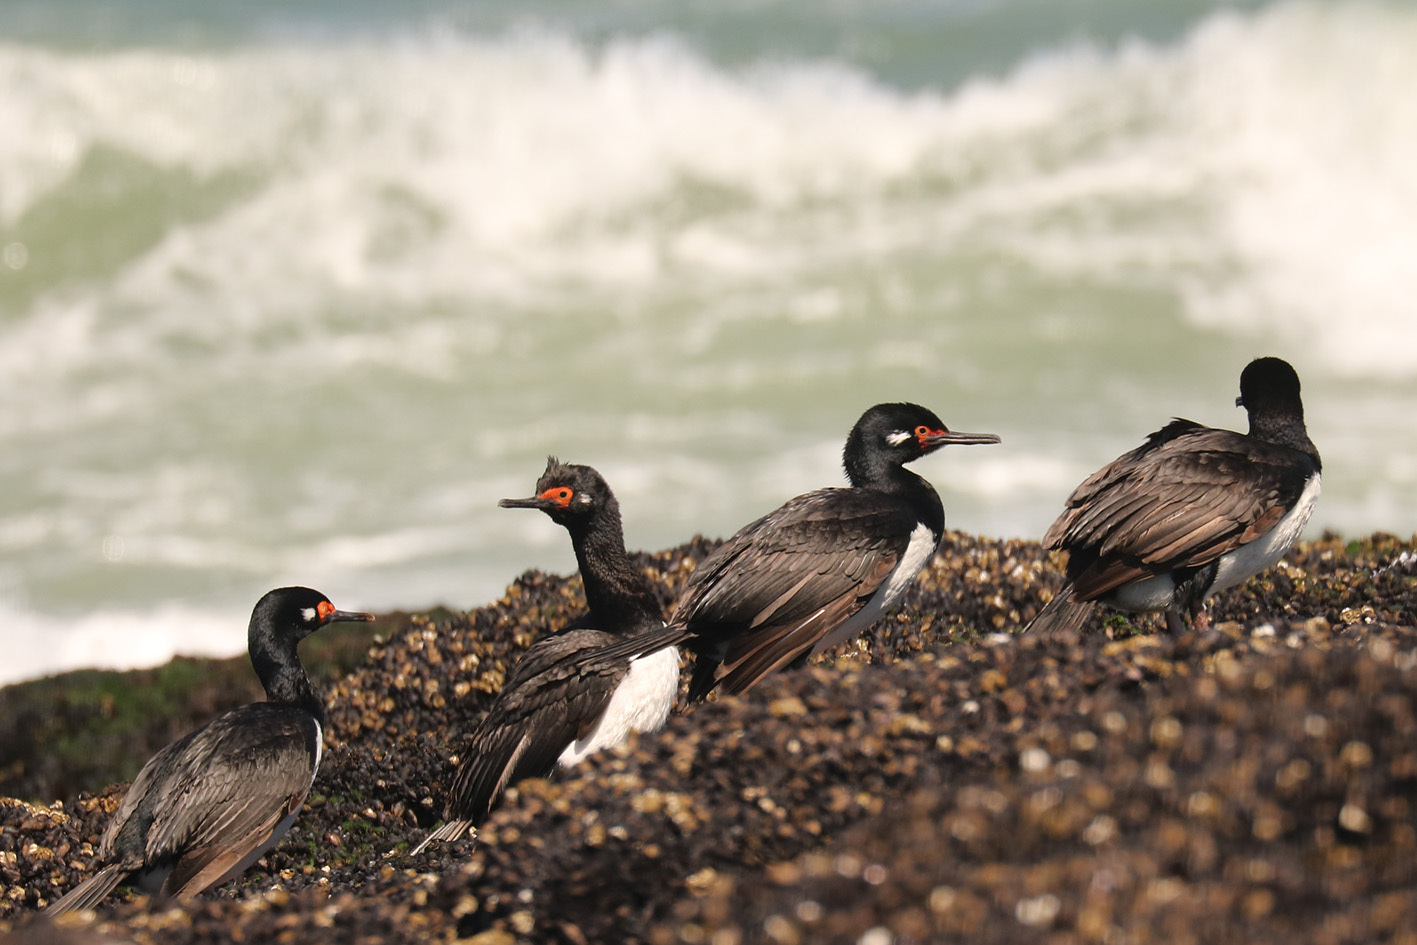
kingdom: Animalia
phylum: Chordata
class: Aves
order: Suliformes
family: Phalacrocoracidae
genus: Phalacrocorax
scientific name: Phalacrocorax magellanicus
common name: Rock shag
